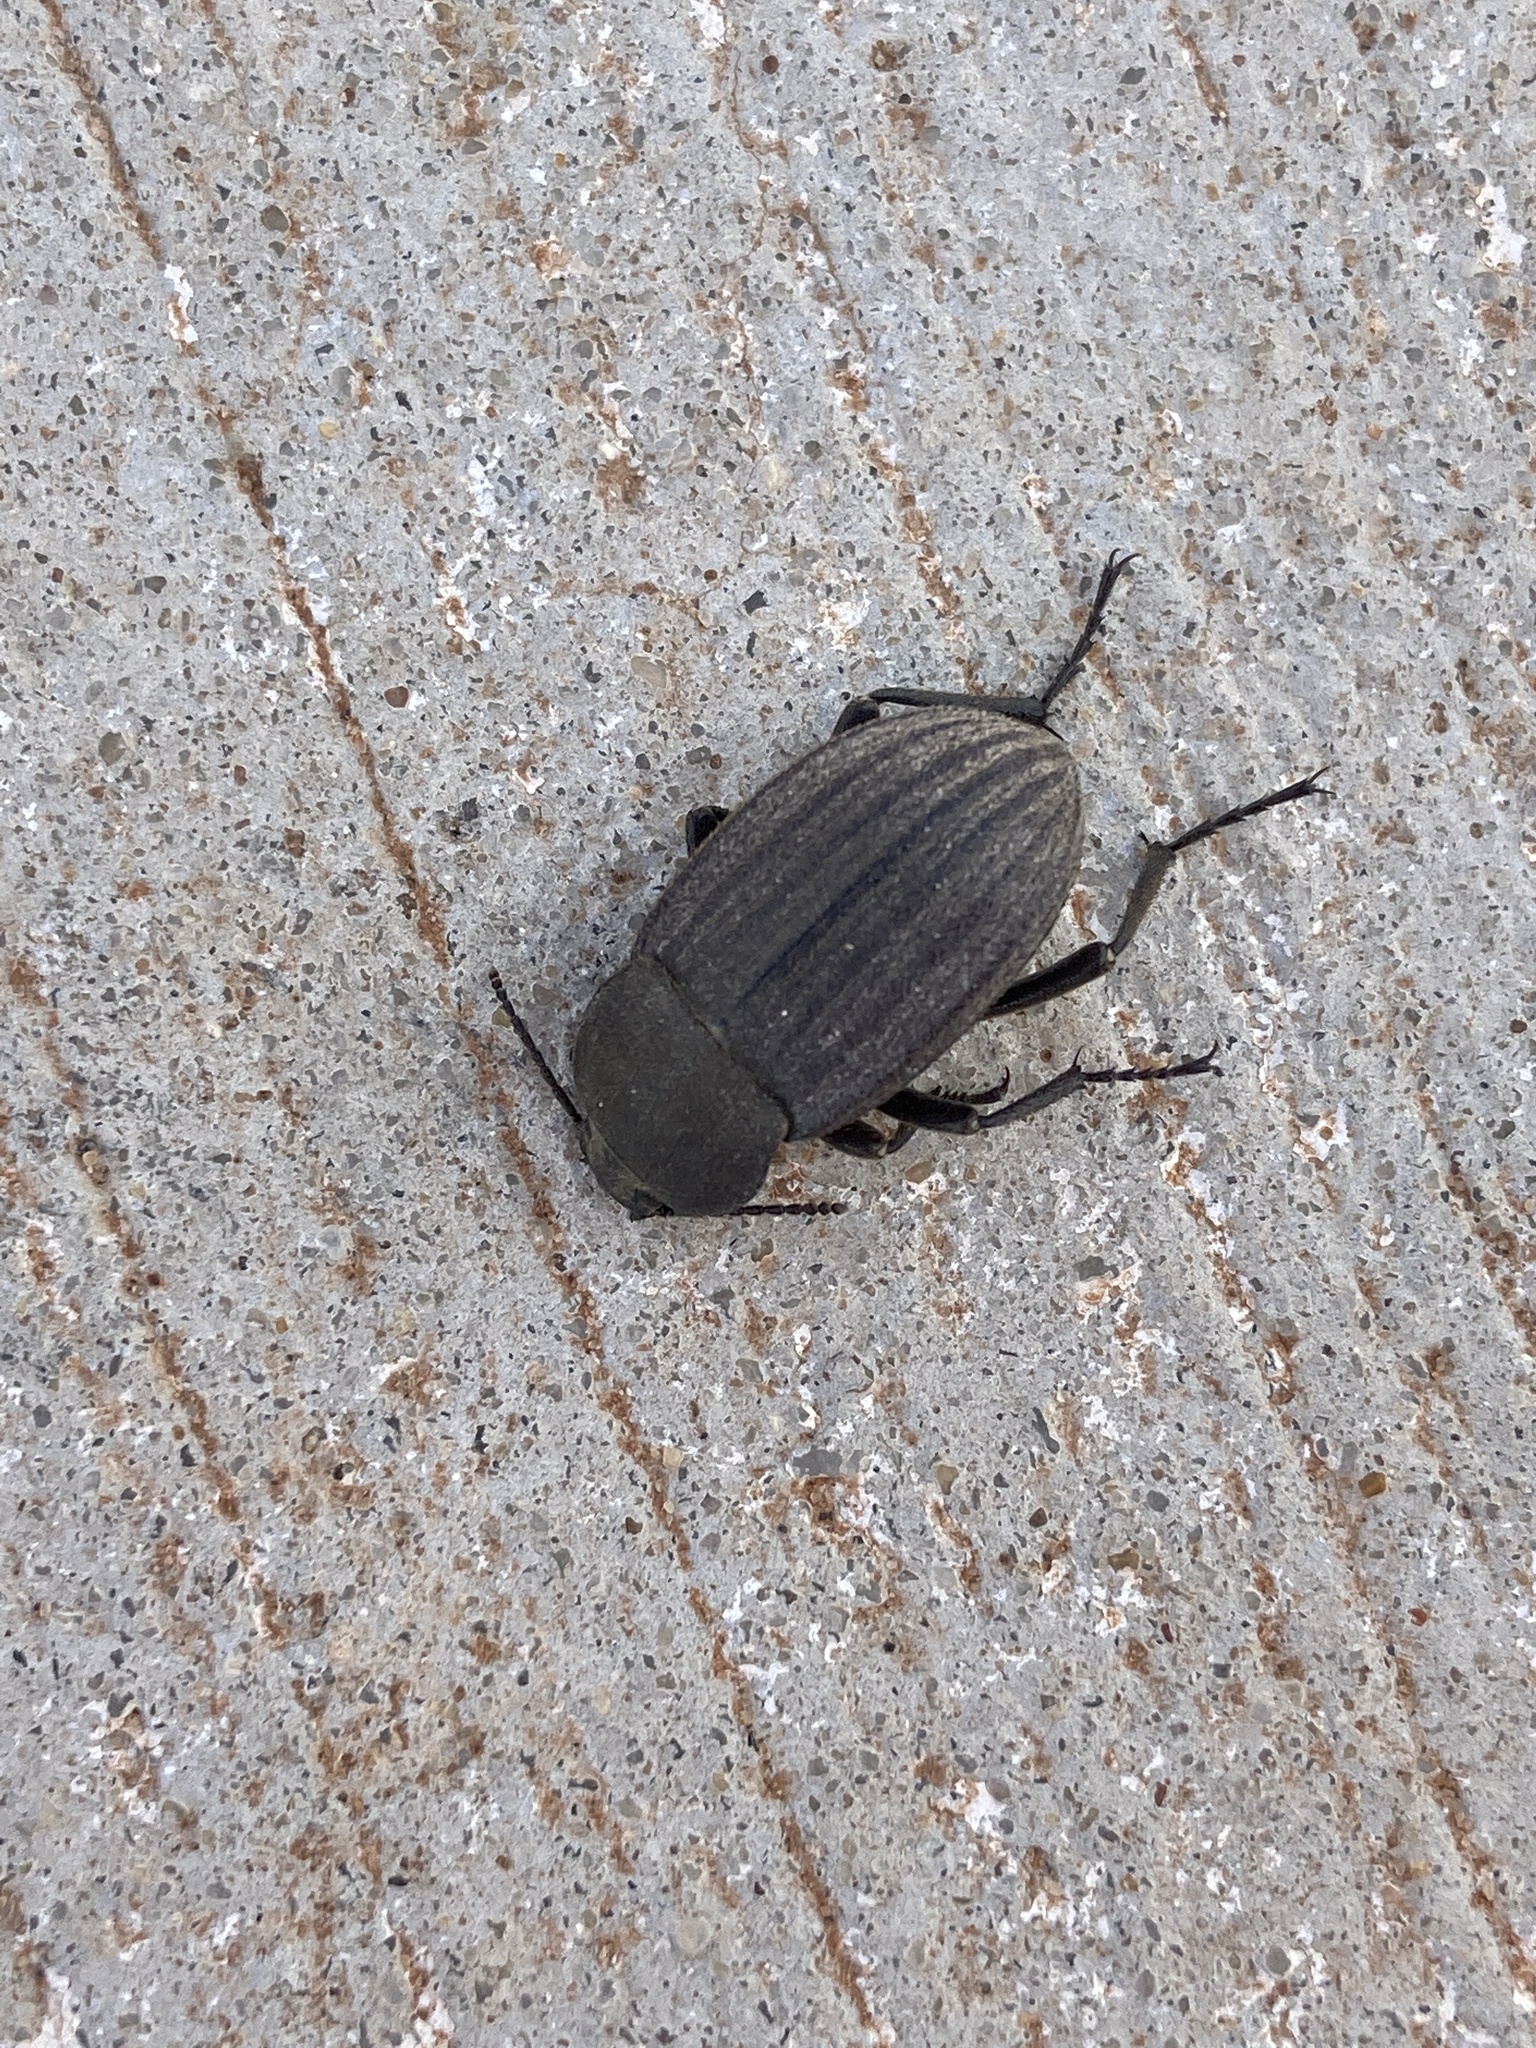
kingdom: Animalia
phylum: Arthropoda
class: Insecta
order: Coleoptera
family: Tenebrionidae
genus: Eleodes
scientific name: Eleodes tricostata
